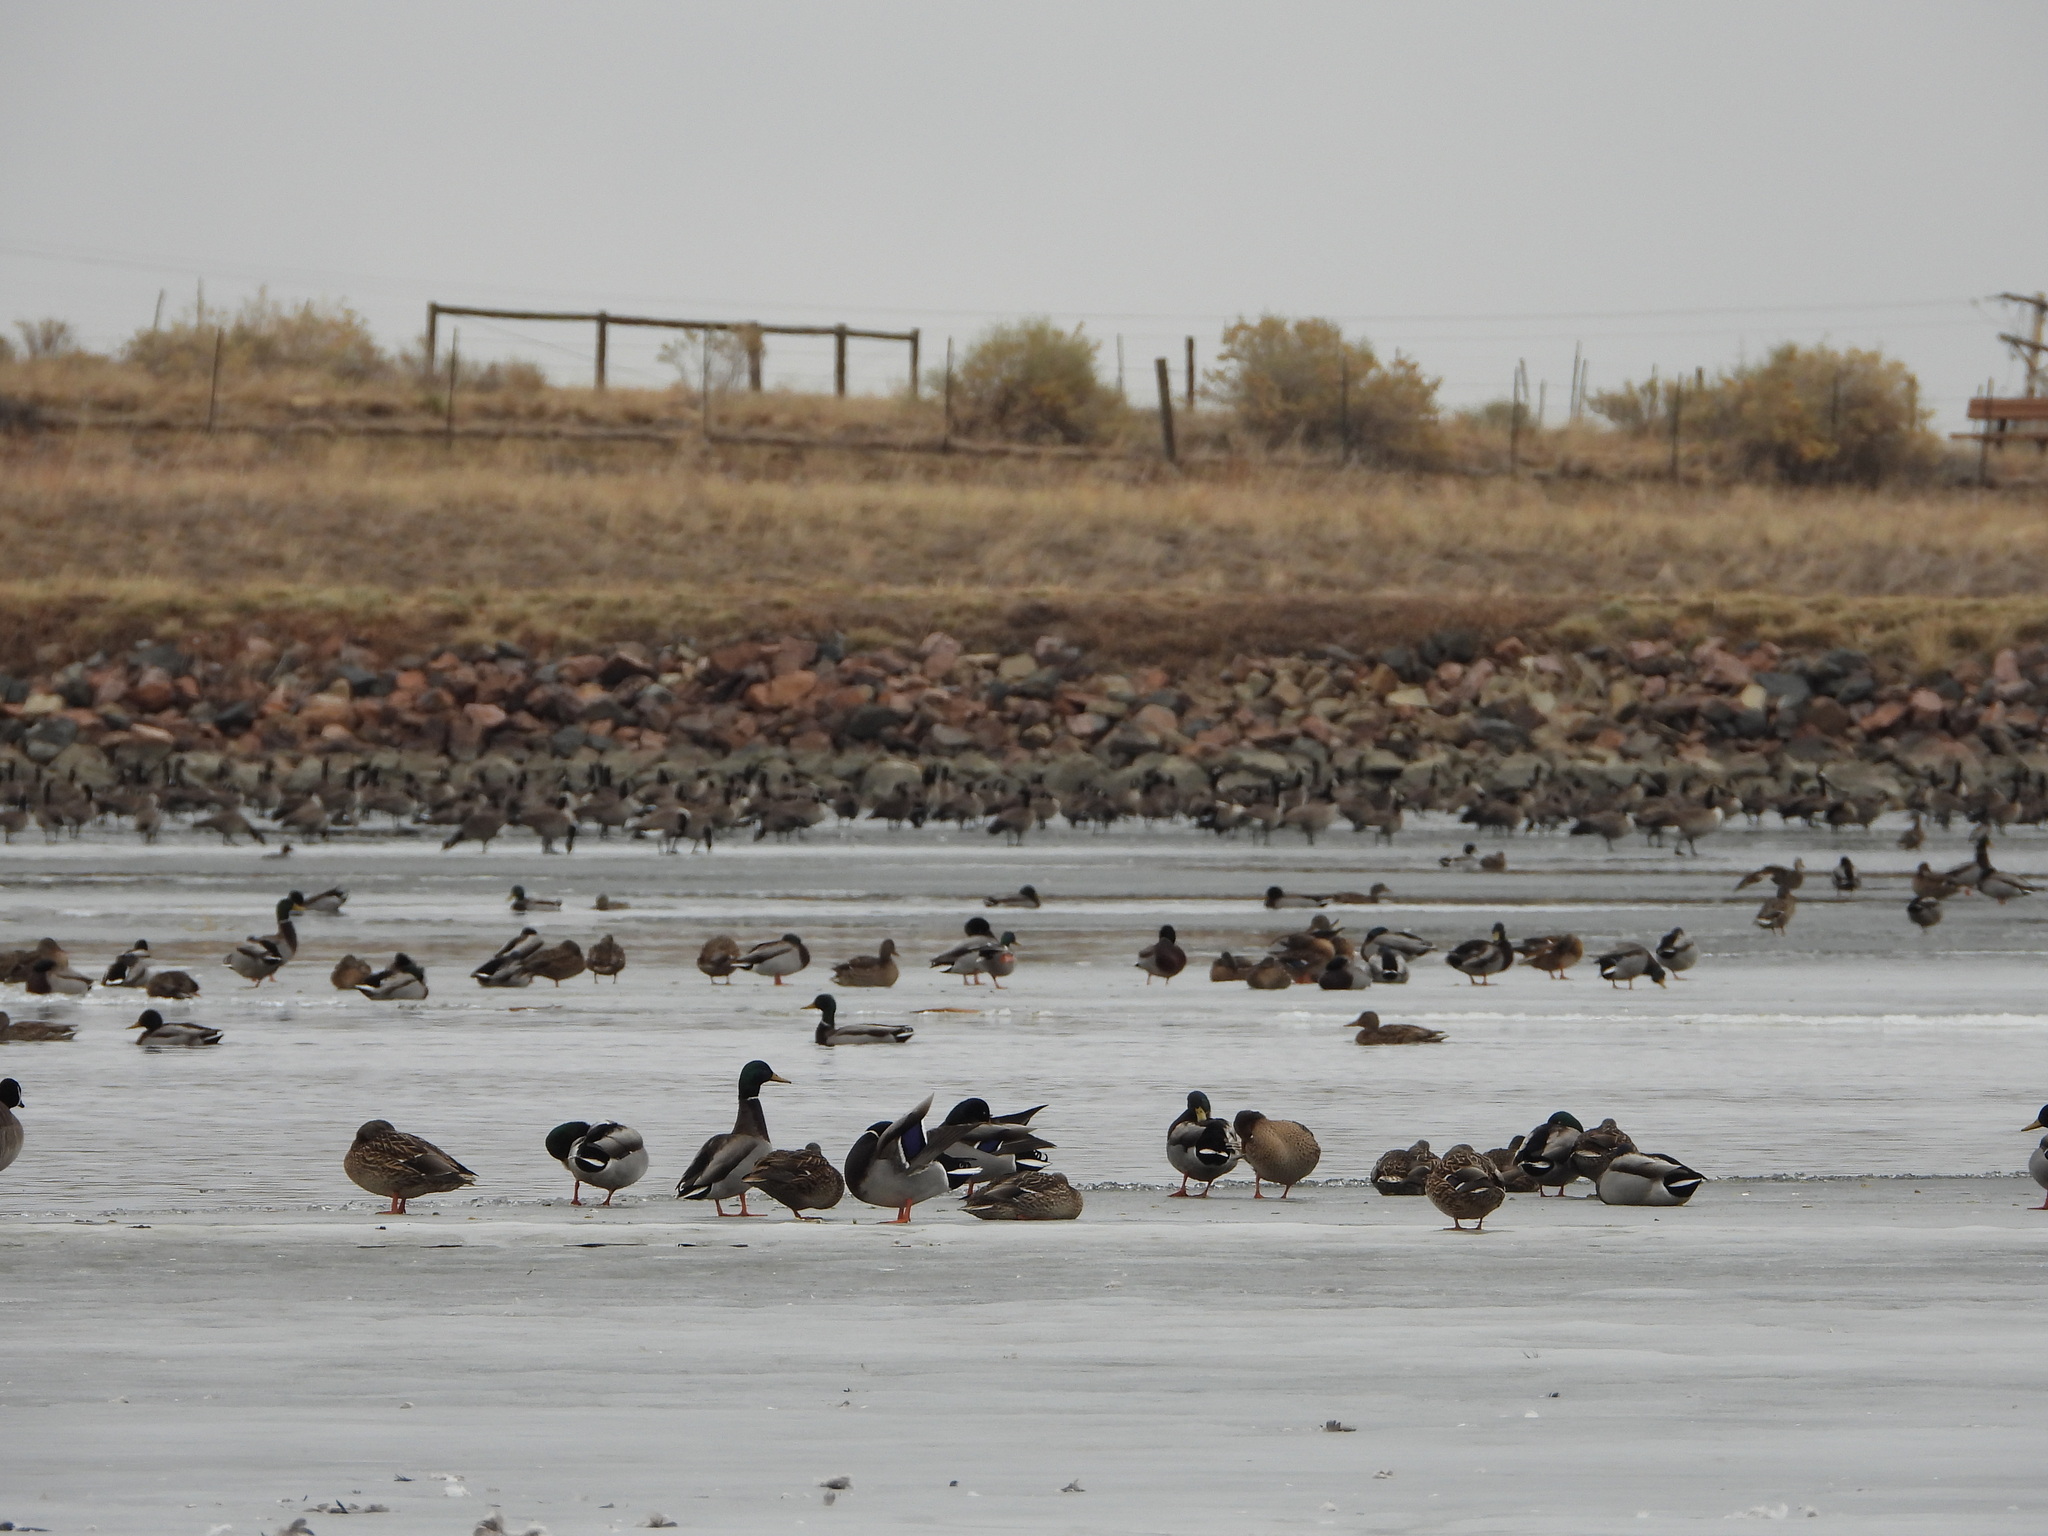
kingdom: Animalia
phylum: Chordata
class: Aves
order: Anseriformes
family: Anatidae
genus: Anas
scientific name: Anas platyrhynchos
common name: Mallard
